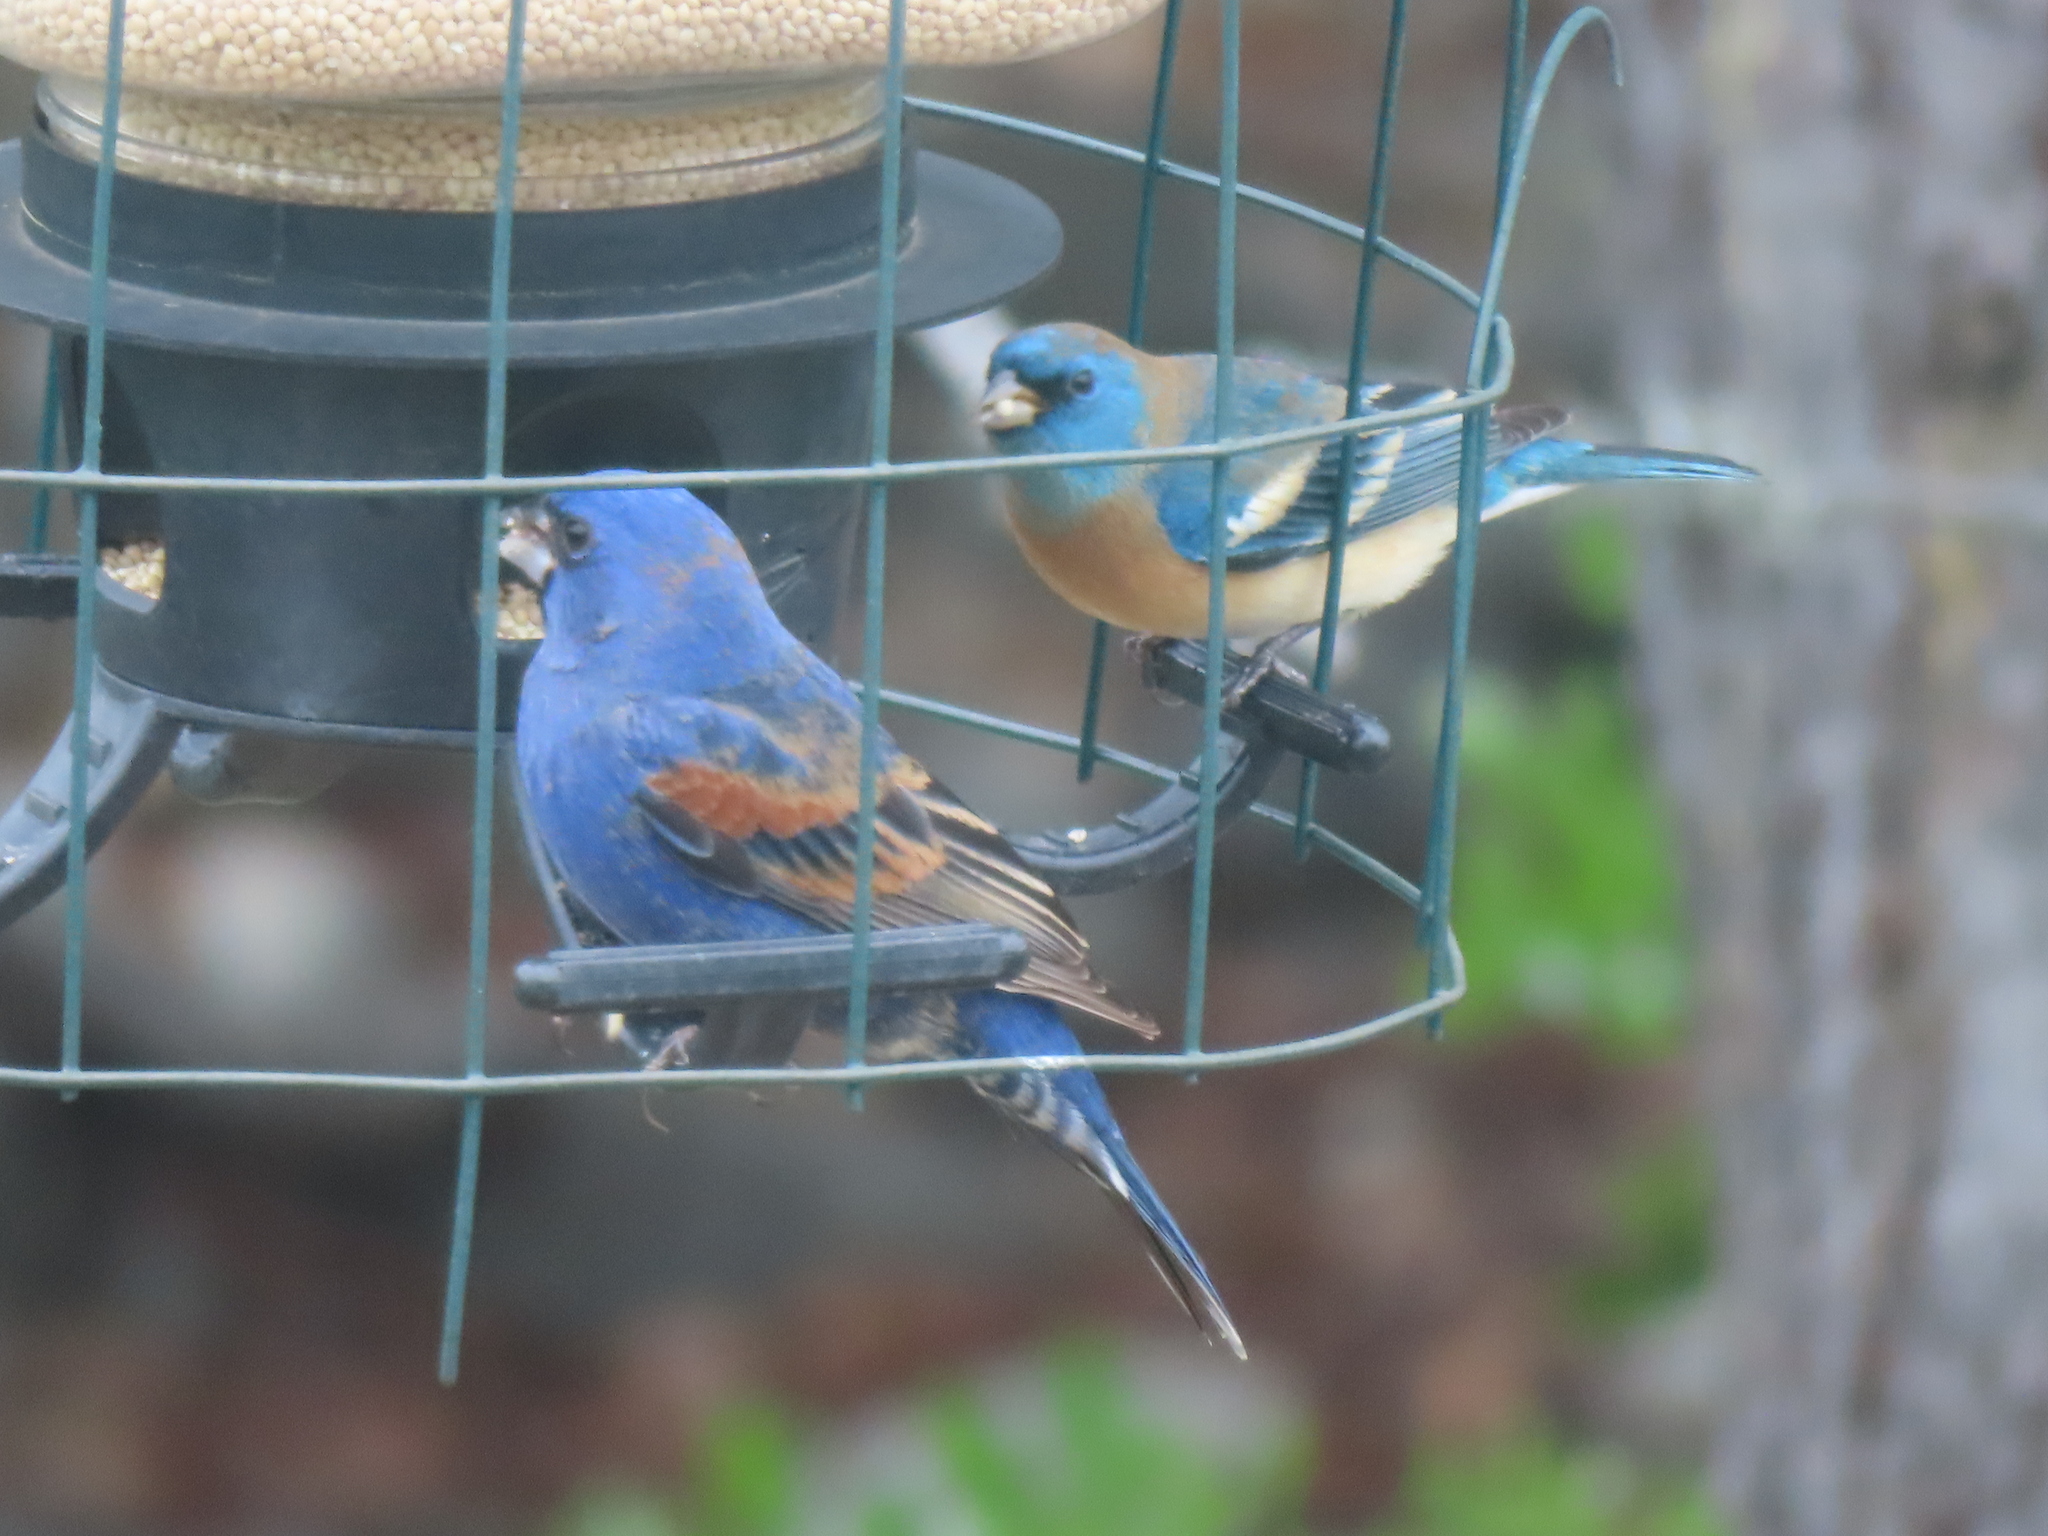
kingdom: Animalia
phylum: Chordata
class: Aves
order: Passeriformes
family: Cardinalidae
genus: Passerina
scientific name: Passerina amoena
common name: Lazuli bunting
